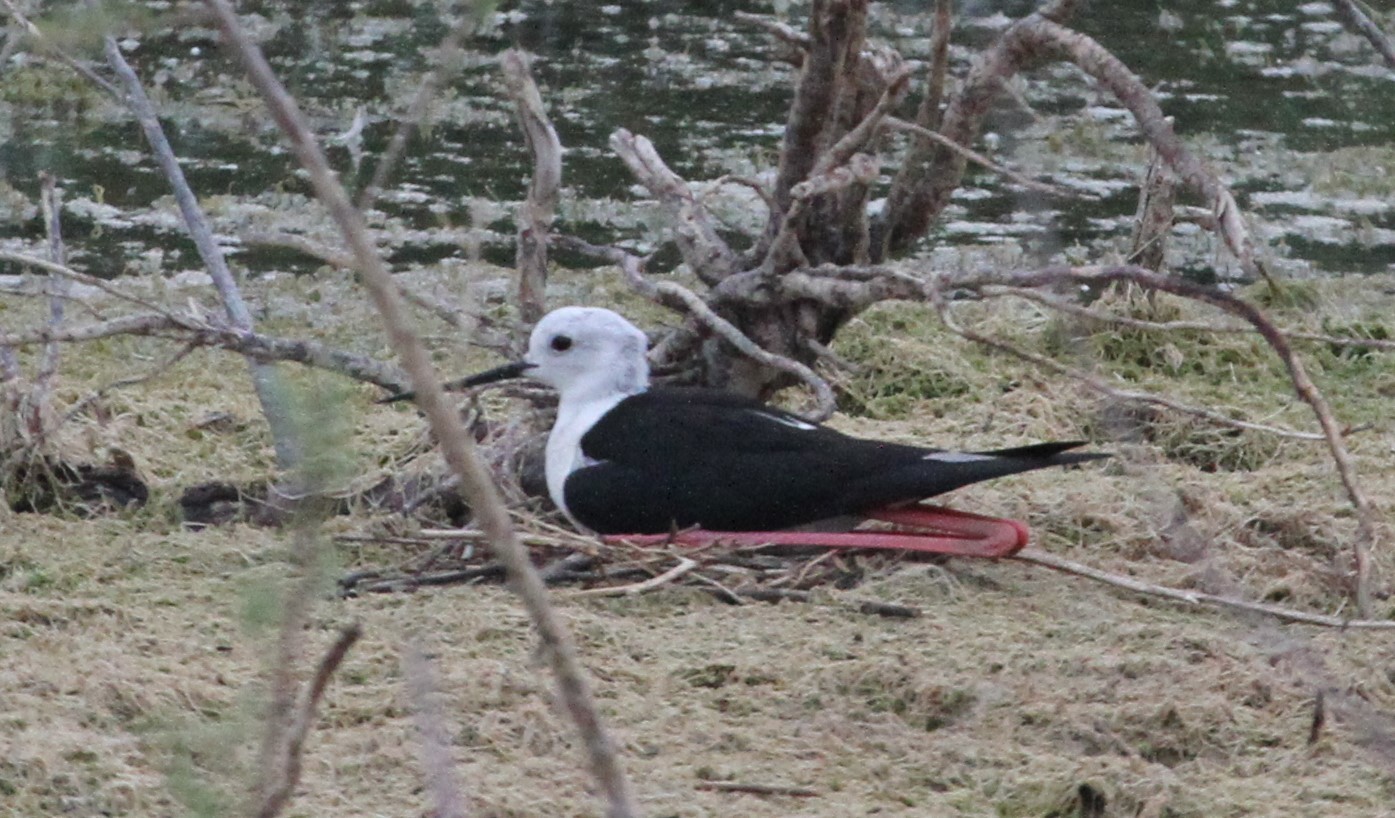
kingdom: Animalia
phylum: Chordata
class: Aves
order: Charadriiformes
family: Recurvirostridae
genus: Himantopus
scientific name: Himantopus himantopus
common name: Black-winged stilt
